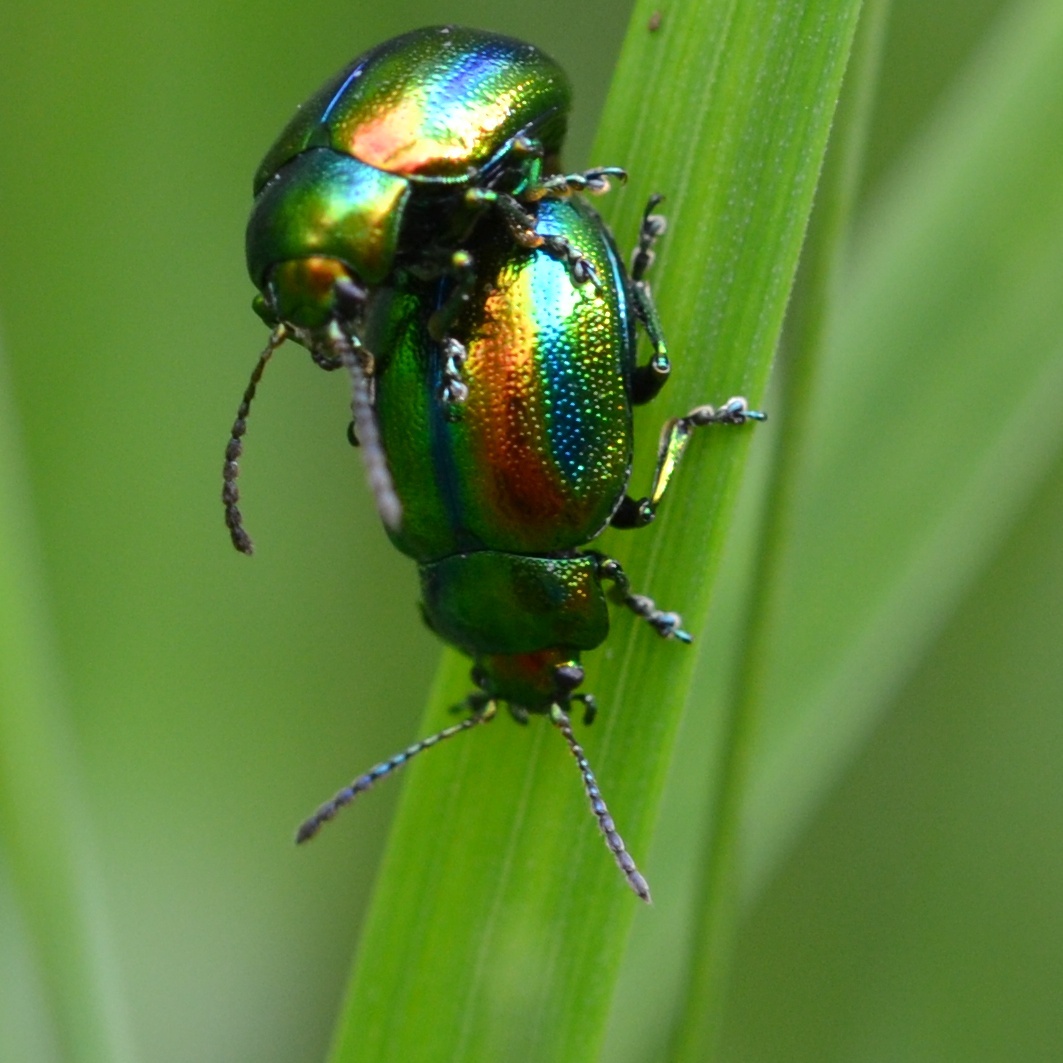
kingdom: Animalia
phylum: Arthropoda
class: Insecta
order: Coleoptera
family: Chrysomelidae
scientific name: Chrysomelidae
